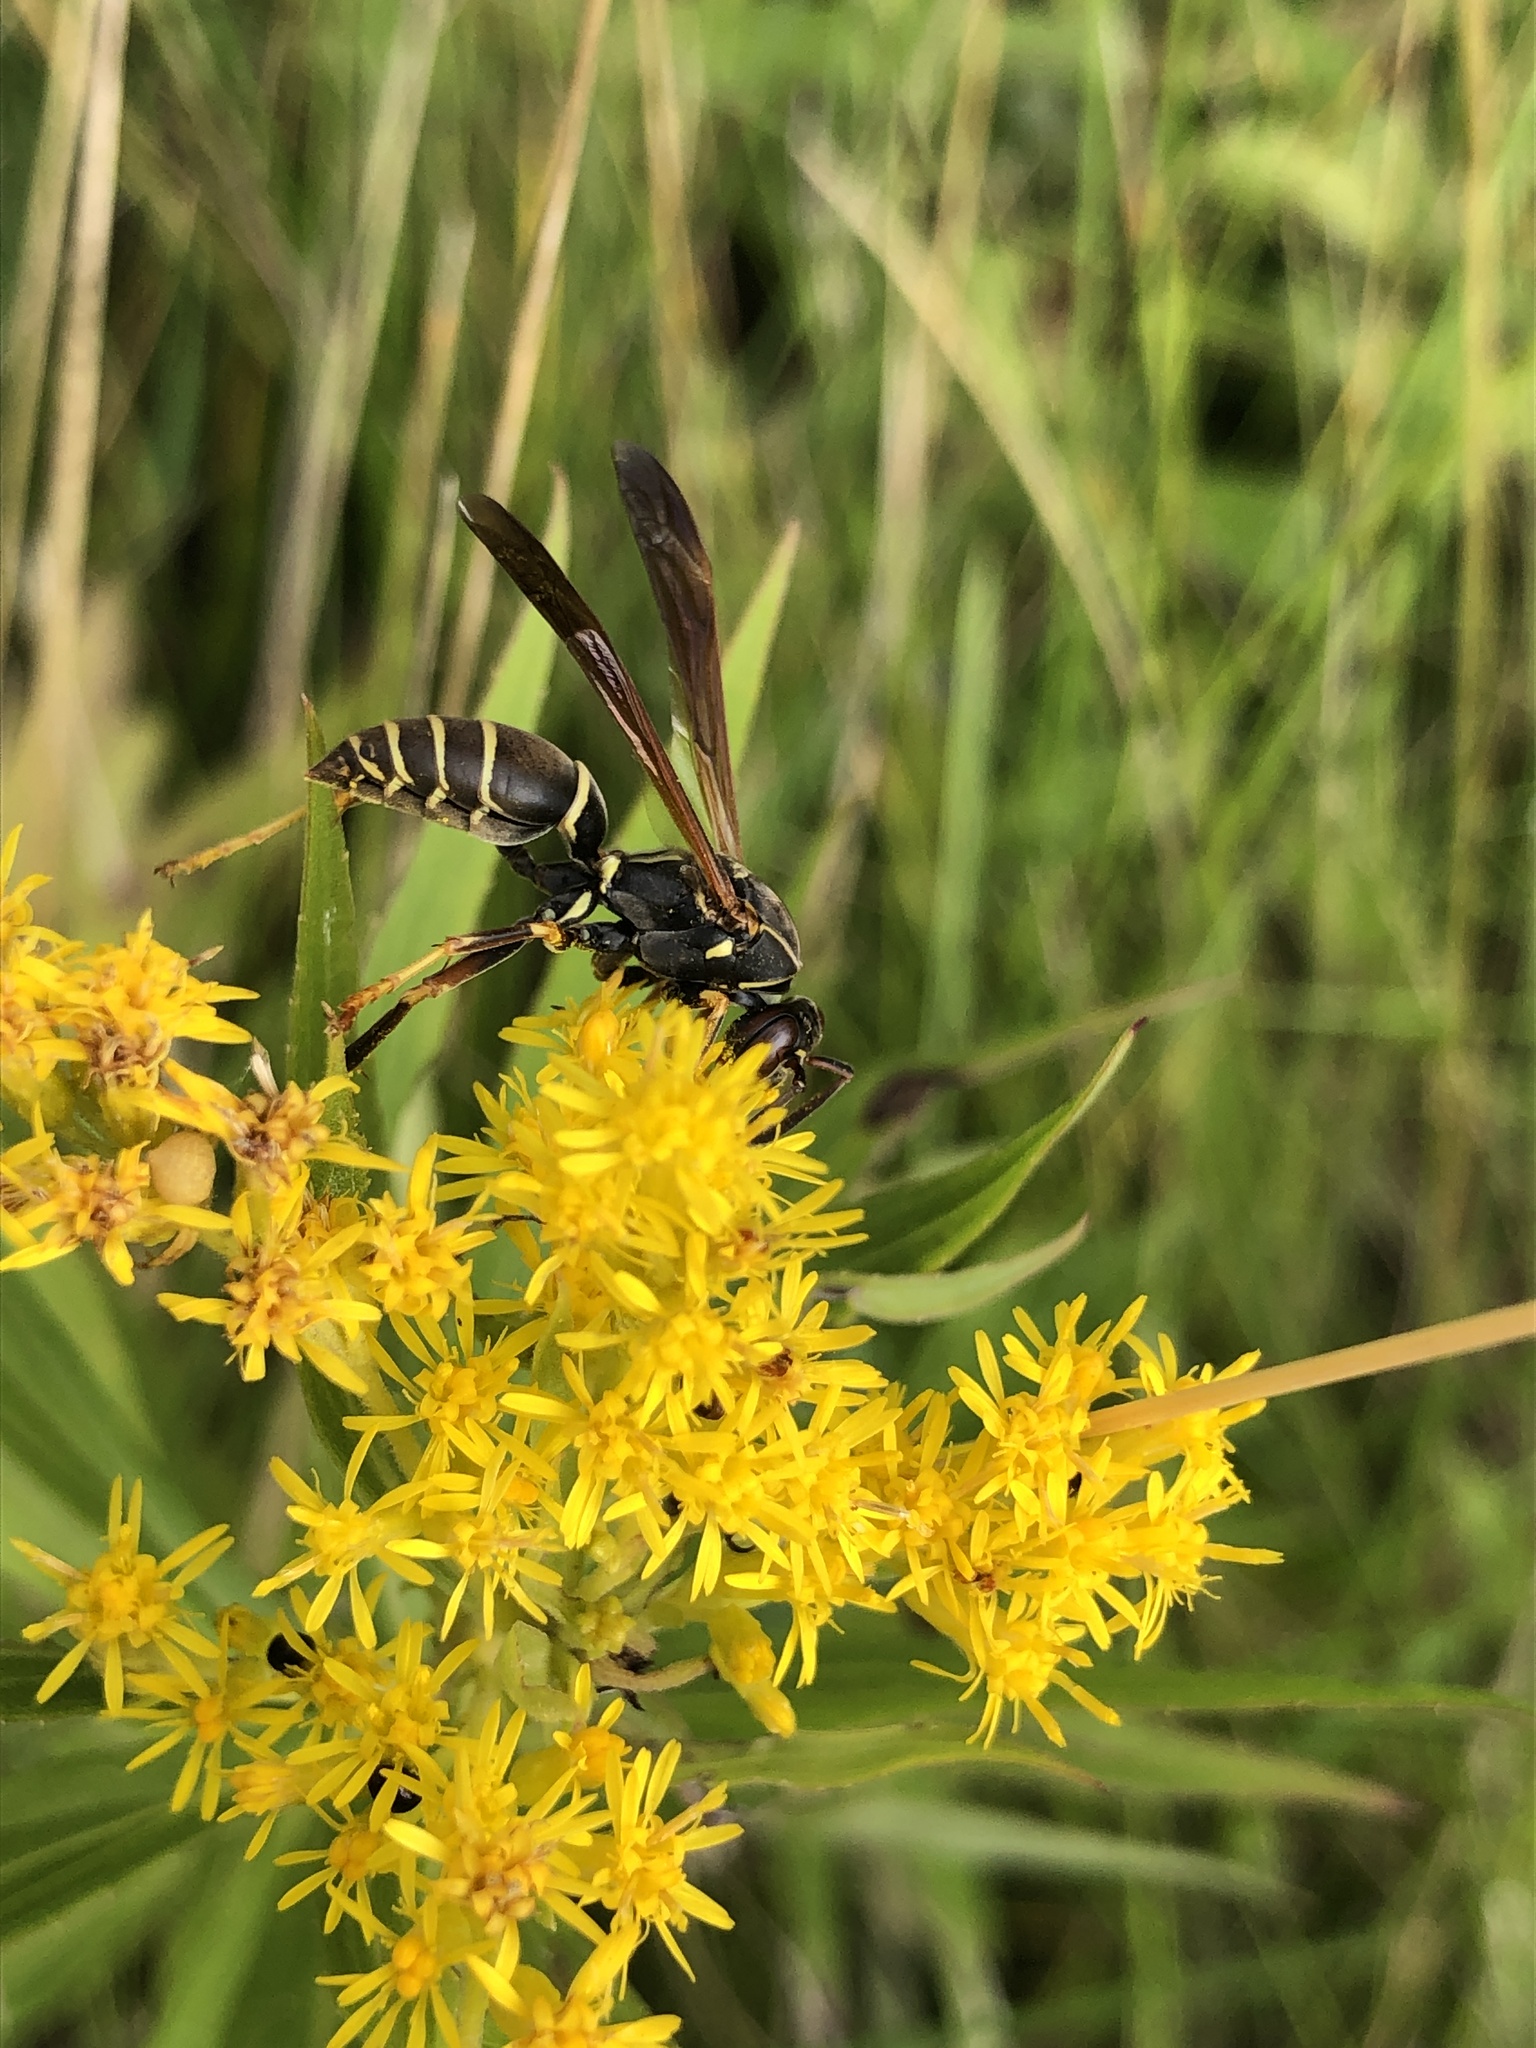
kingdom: Animalia
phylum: Arthropoda
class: Insecta
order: Hymenoptera
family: Eumenidae
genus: Polistes
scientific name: Polistes fuscatus
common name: Dark paper wasp
